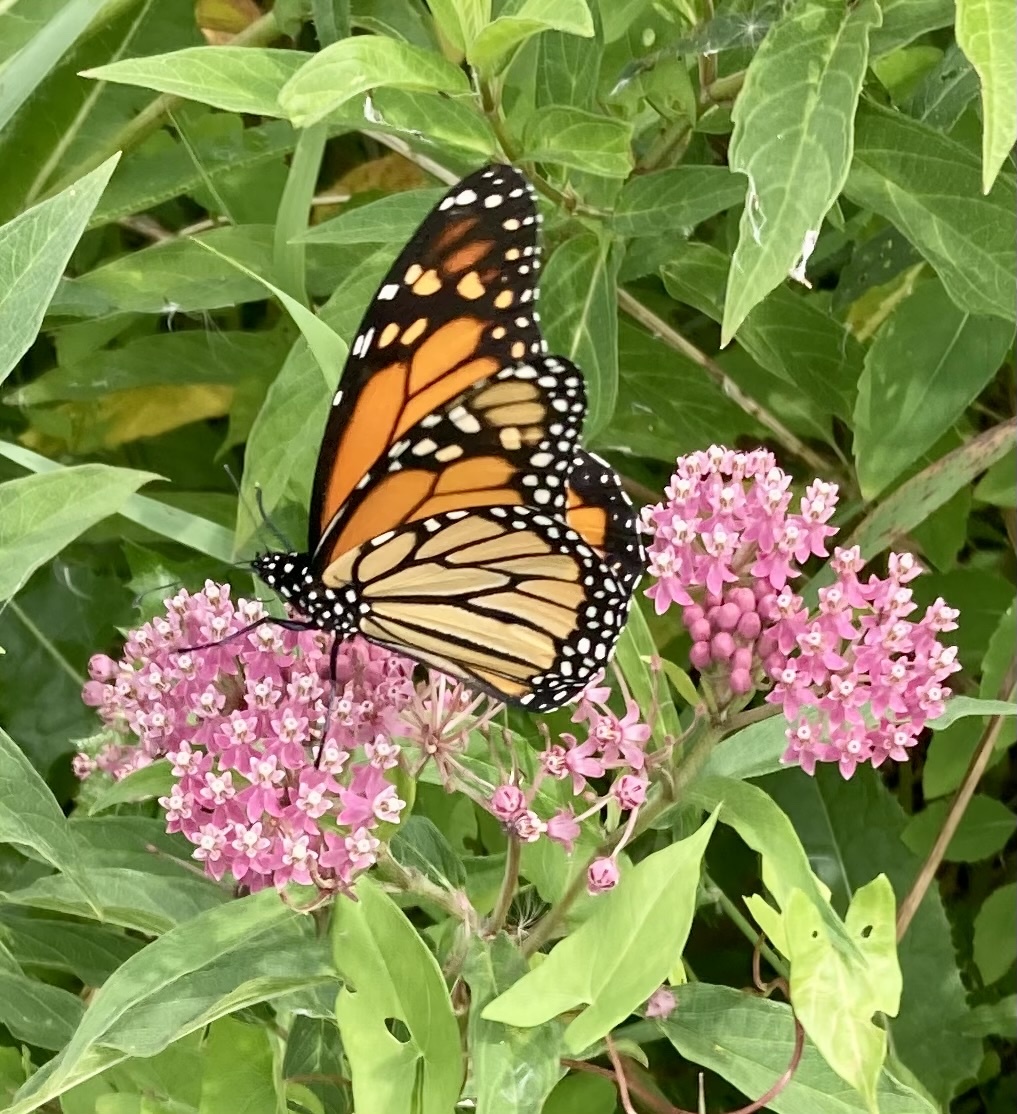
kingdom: Animalia
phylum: Arthropoda
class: Insecta
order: Lepidoptera
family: Nymphalidae
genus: Danaus
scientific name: Danaus plexippus
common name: Monarch
